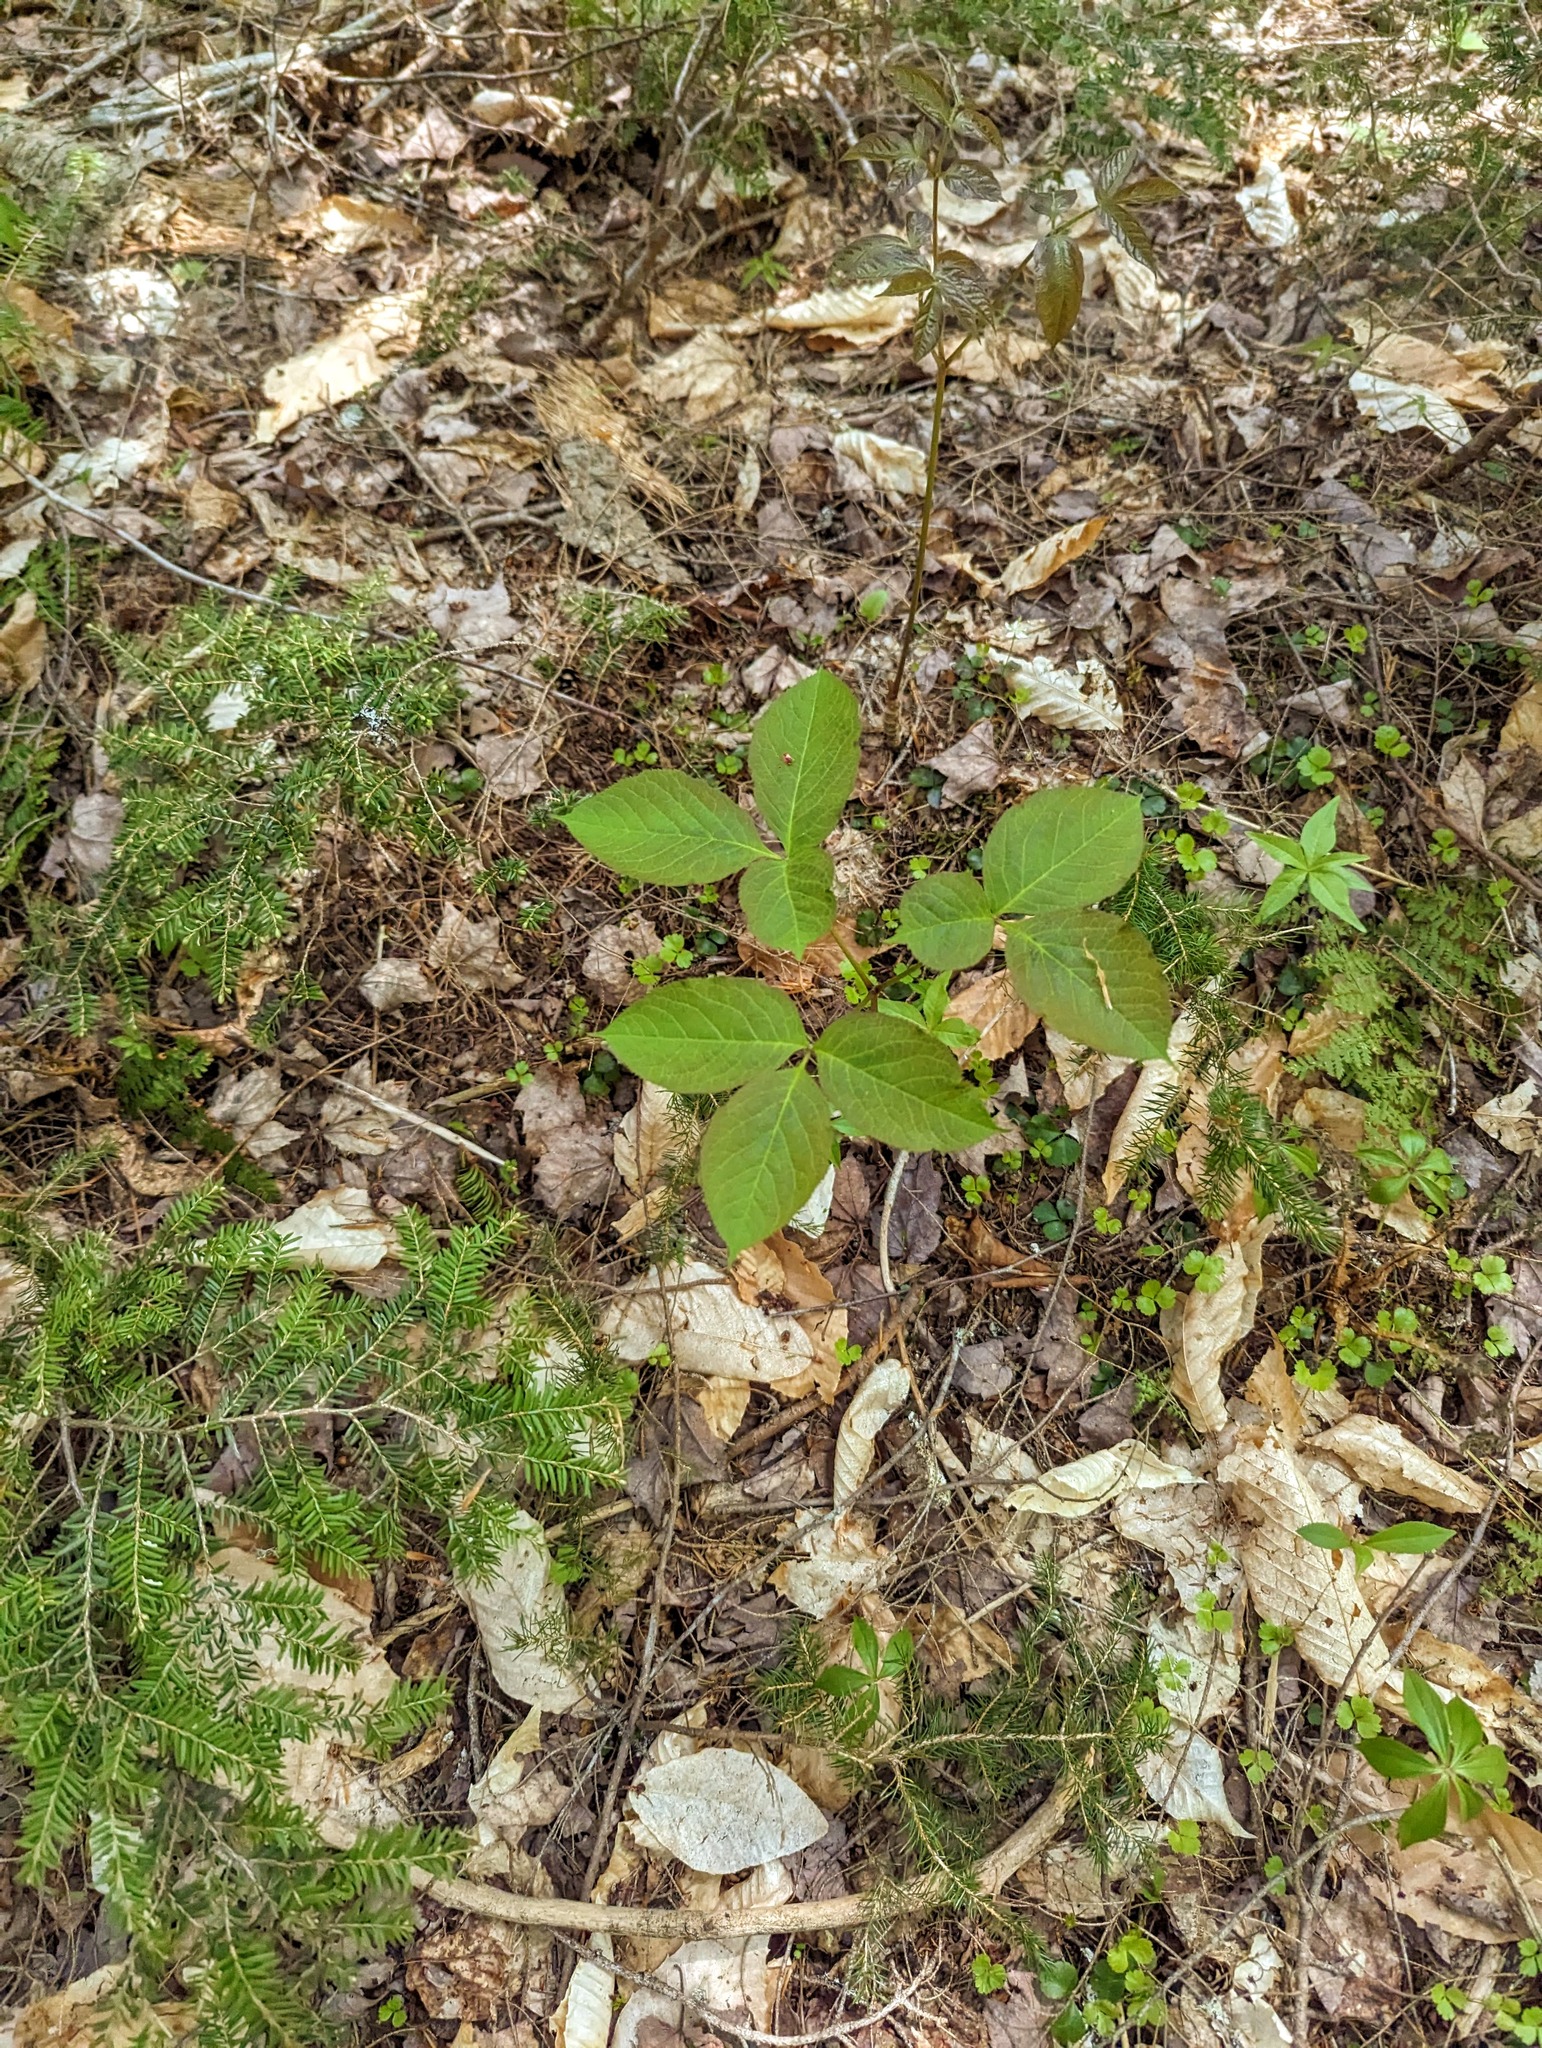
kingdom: Plantae
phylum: Tracheophyta
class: Magnoliopsida
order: Apiales
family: Araliaceae
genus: Aralia
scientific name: Aralia nudicaulis
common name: Wild sarsaparilla
